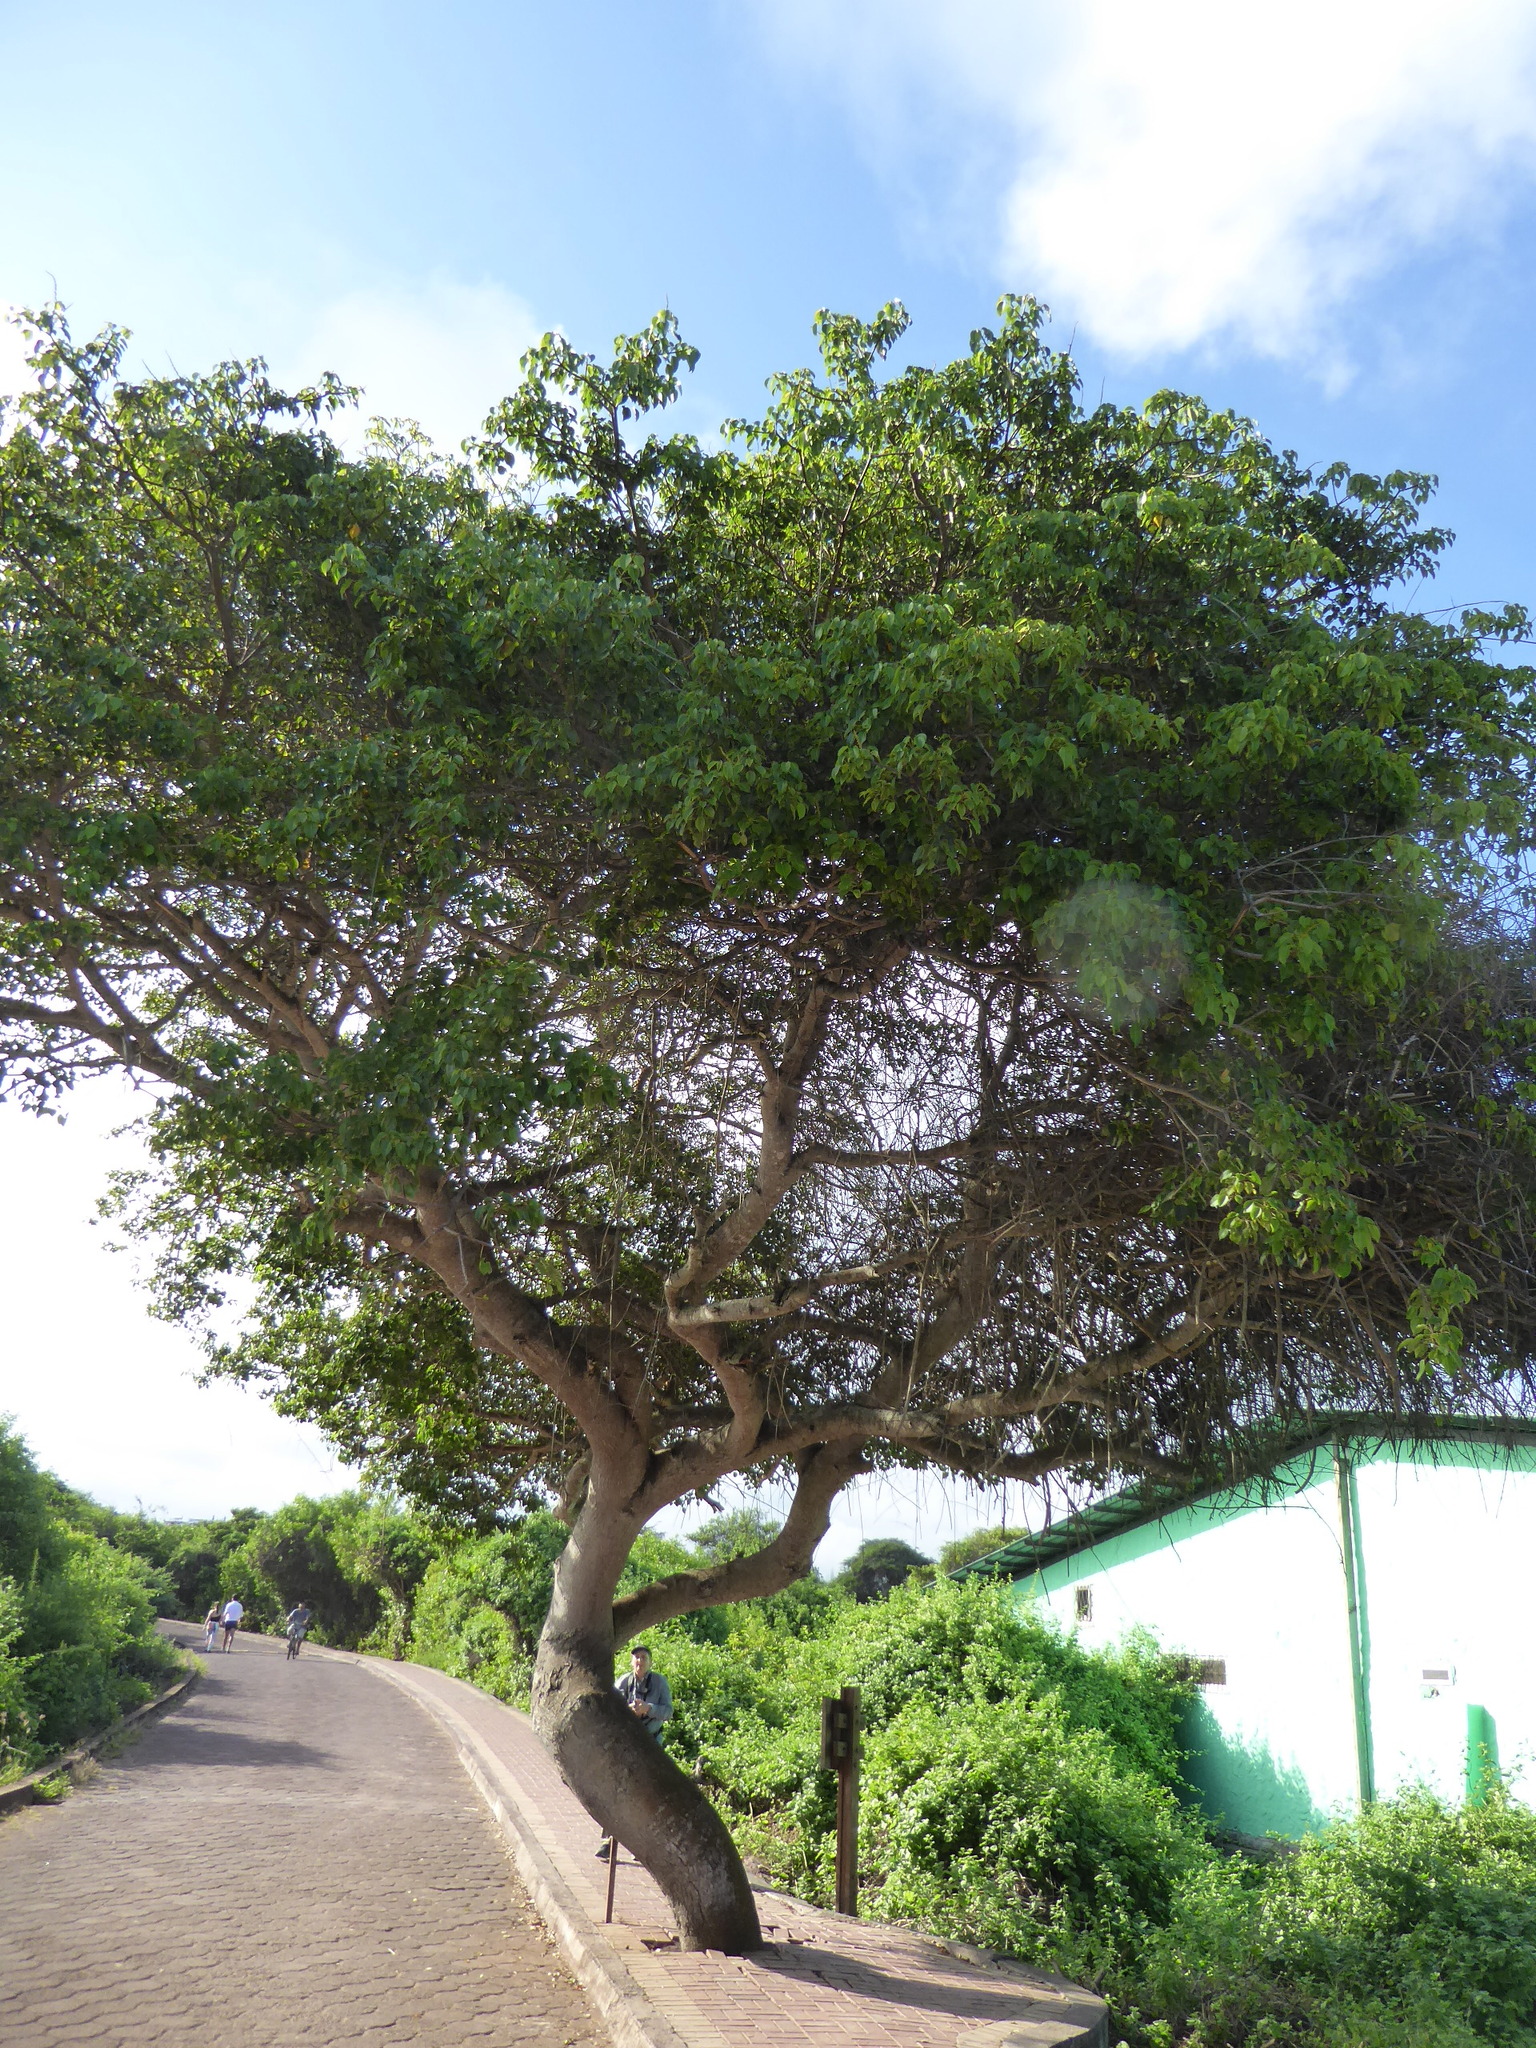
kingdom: Plantae
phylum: Tracheophyta
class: Magnoliopsida
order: Malpighiales
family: Euphorbiaceae
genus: Hippomane
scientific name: Hippomane mancinella
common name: Manchineel
